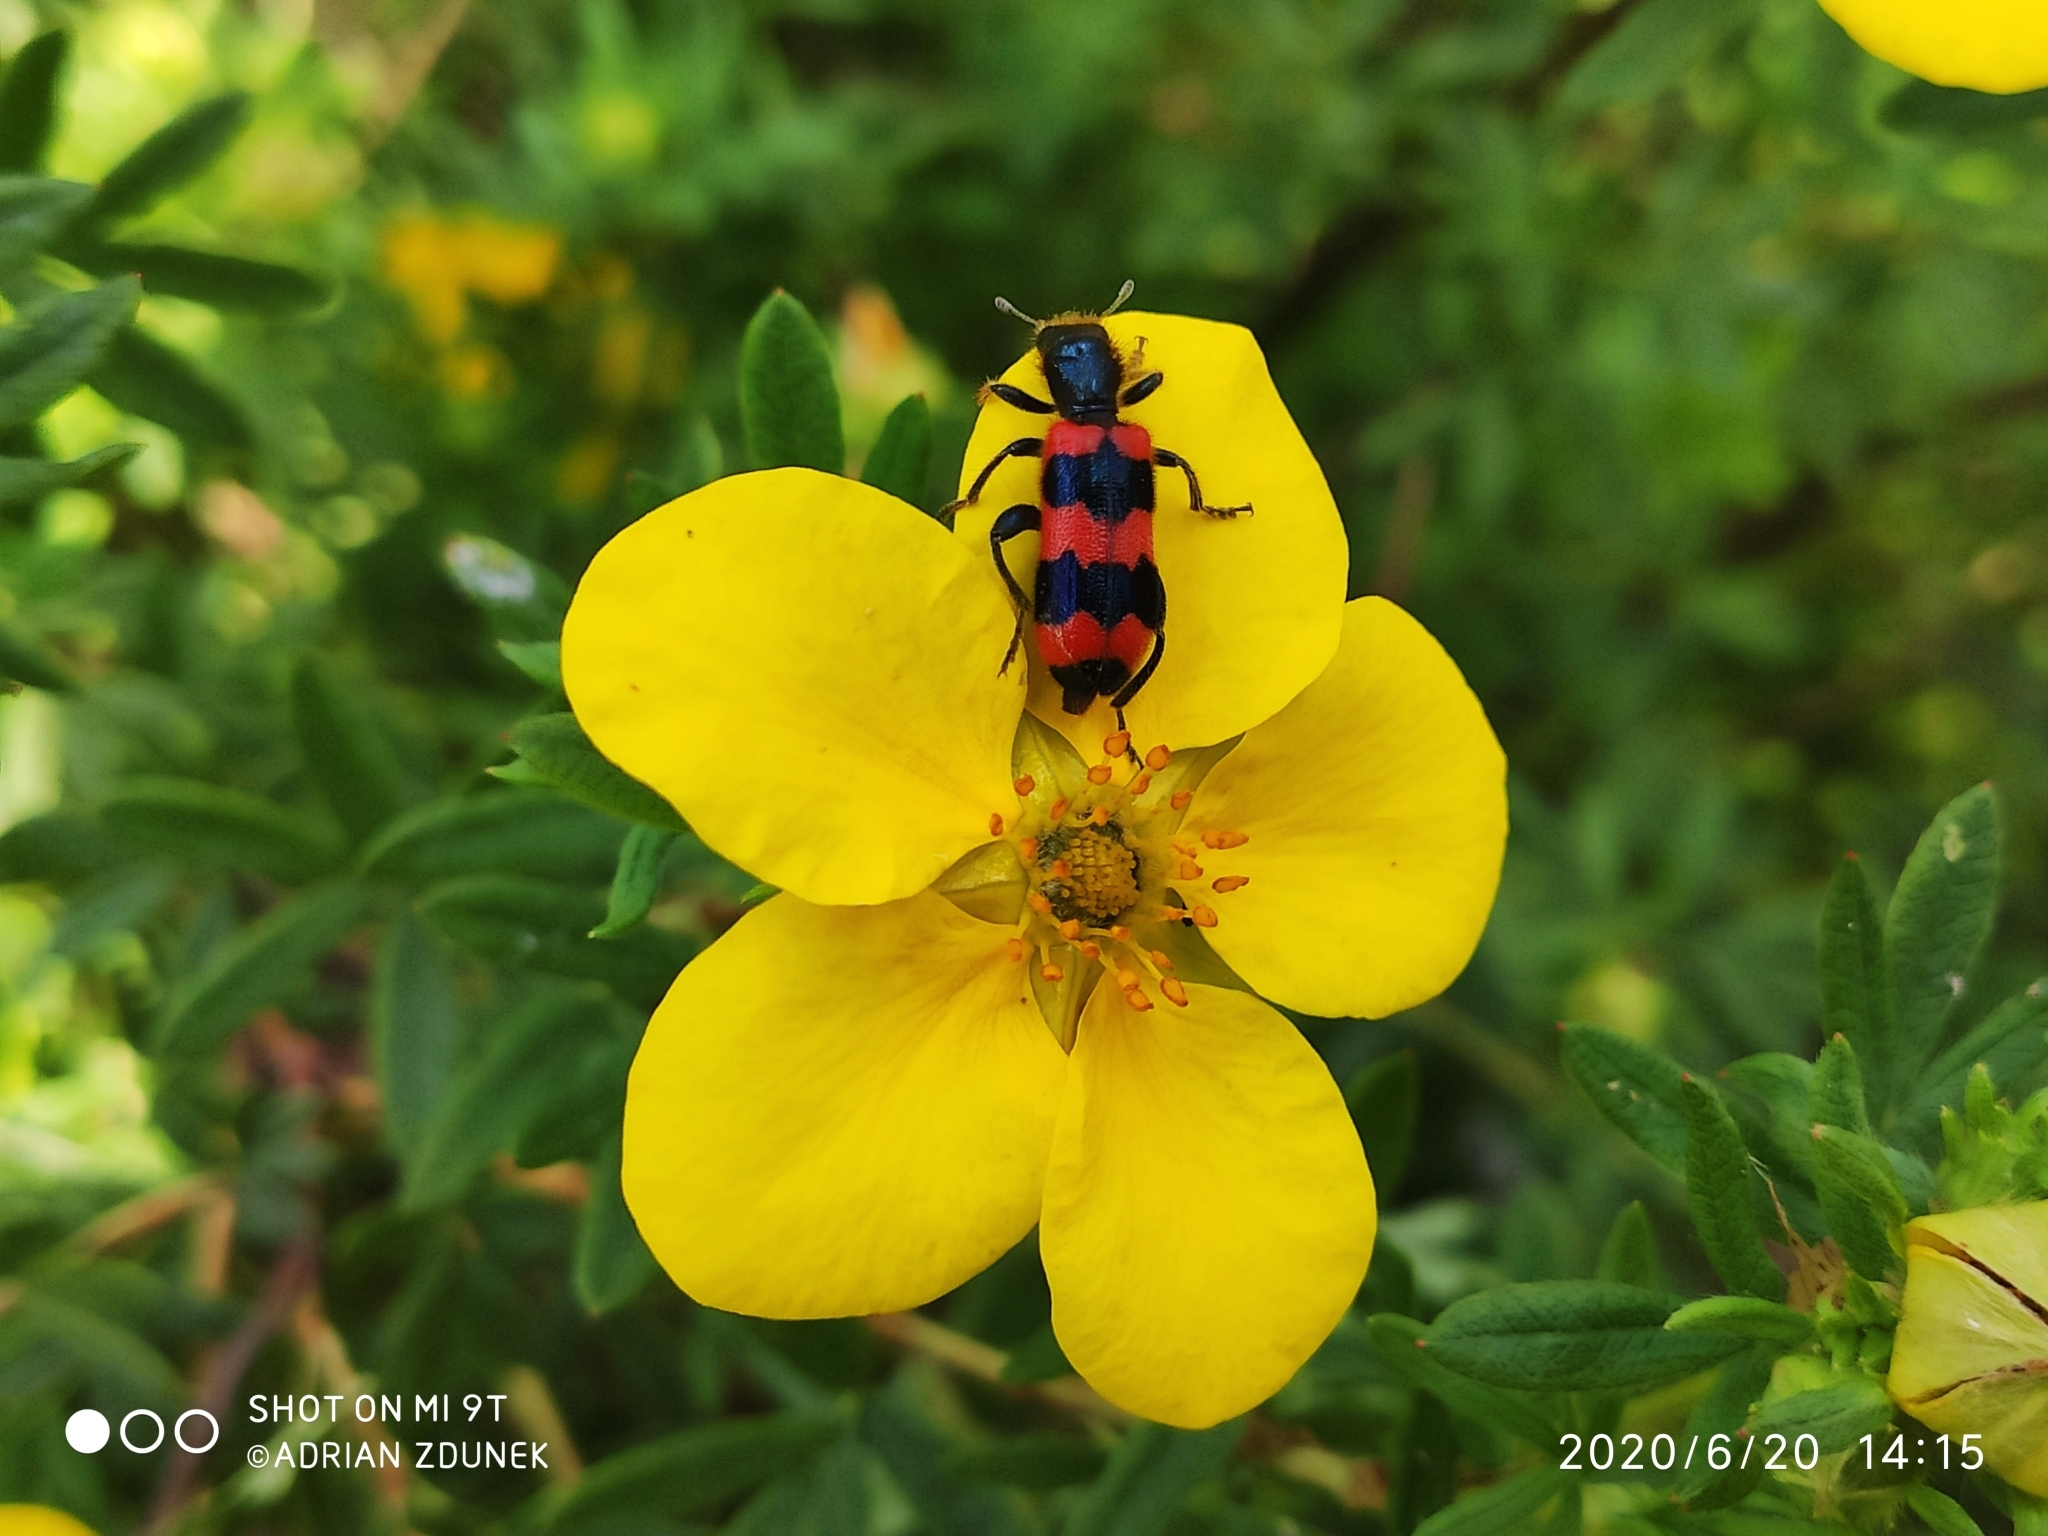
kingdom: Animalia
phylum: Arthropoda
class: Insecta
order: Coleoptera
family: Cleridae
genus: Trichodes
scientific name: Trichodes apiarius
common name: Bee-eating beetle
